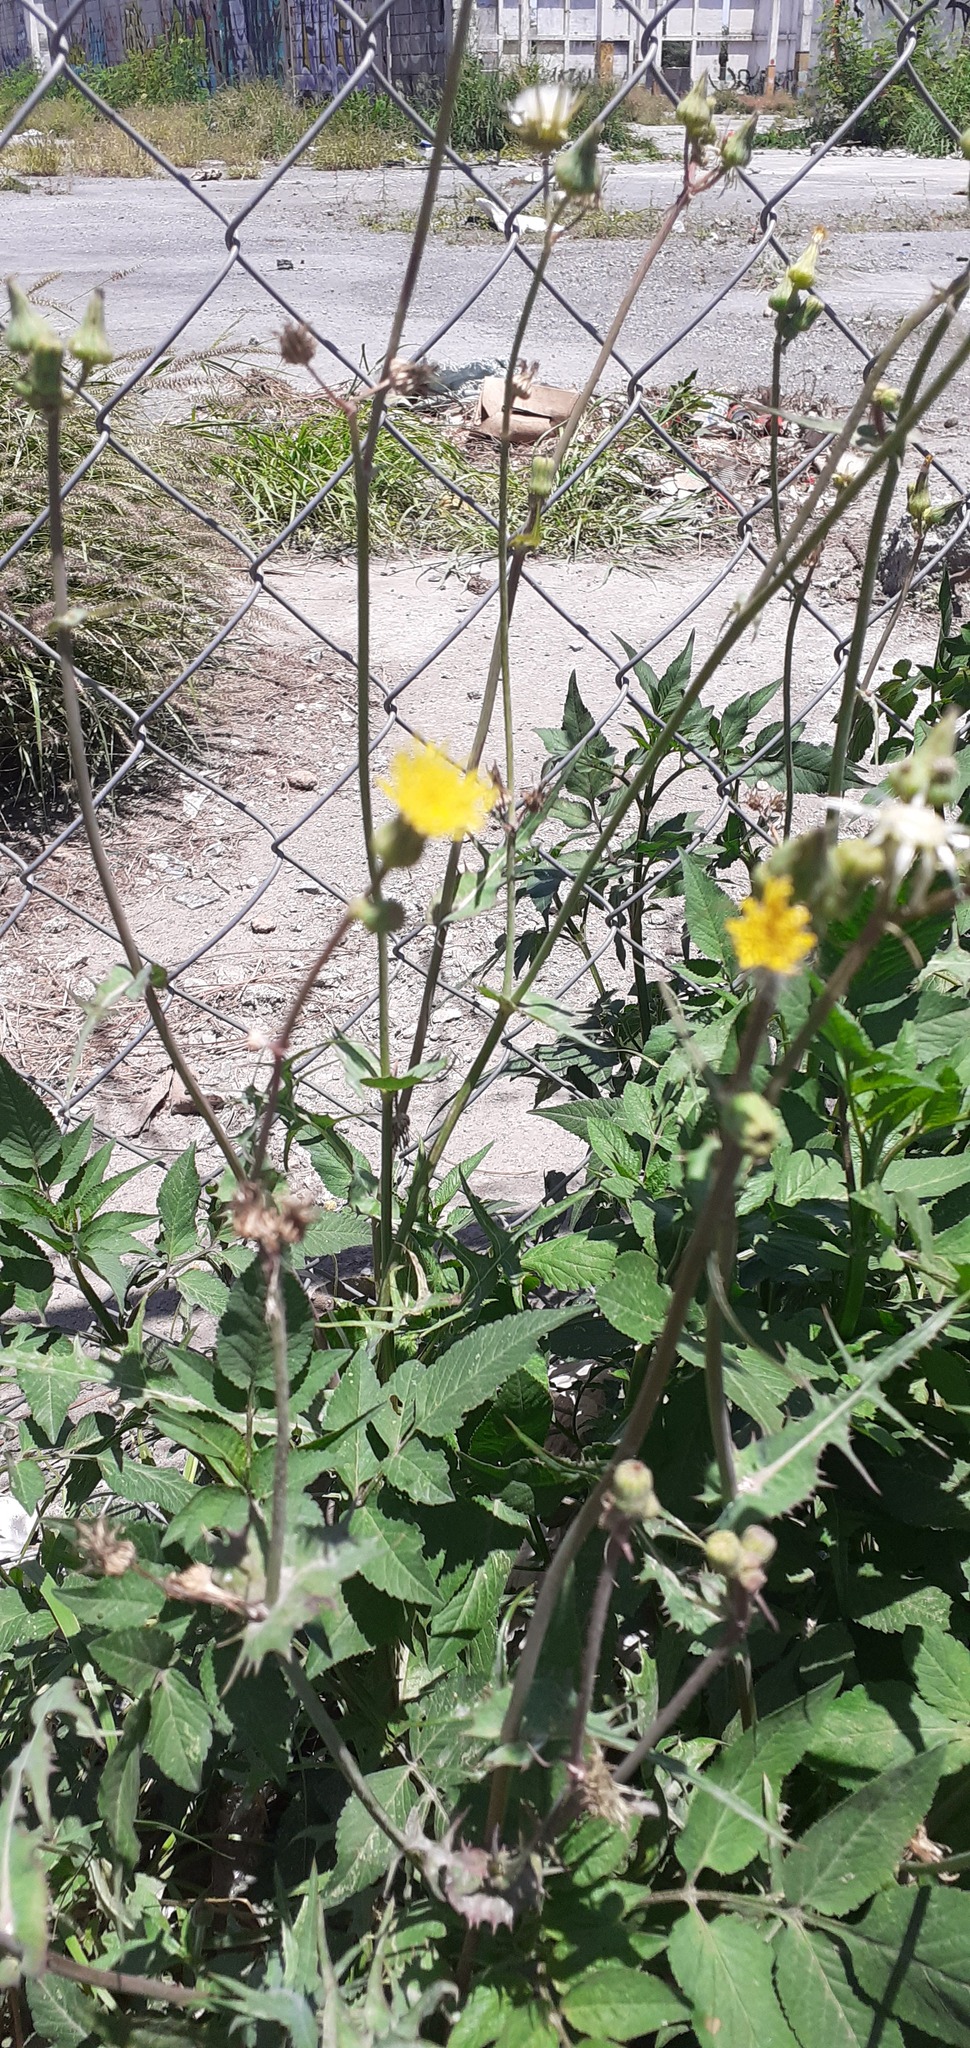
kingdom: Plantae
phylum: Tracheophyta
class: Magnoliopsida
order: Asterales
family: Asteraceae
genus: Sonchus
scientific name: Sonchus oleraceus
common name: Common sowthistle
